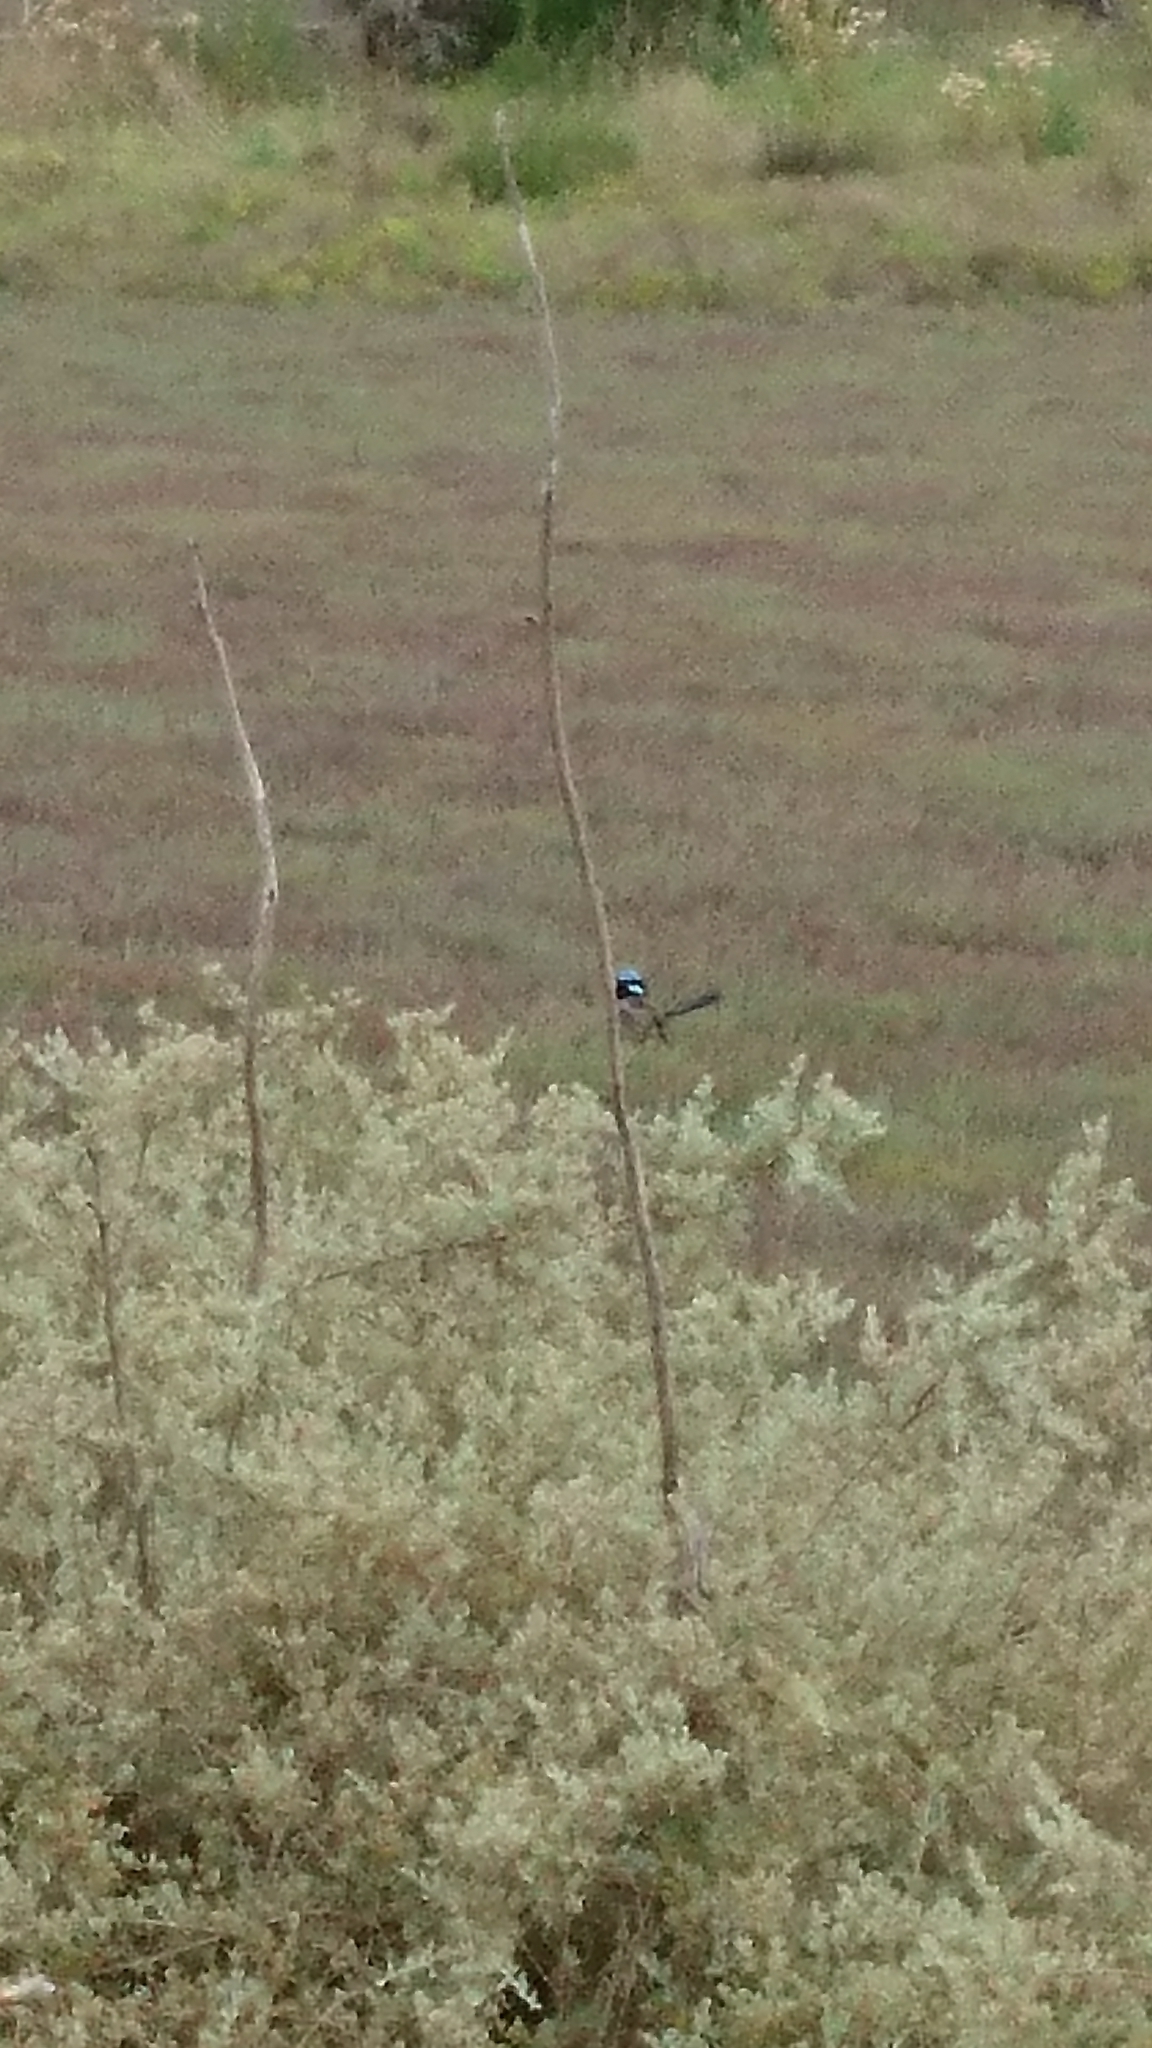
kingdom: Animalia
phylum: Chordata
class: Aves
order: Passeriformes
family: Maluridae
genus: Malurus
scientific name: Malurus cyaneus
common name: Superb fairywren
